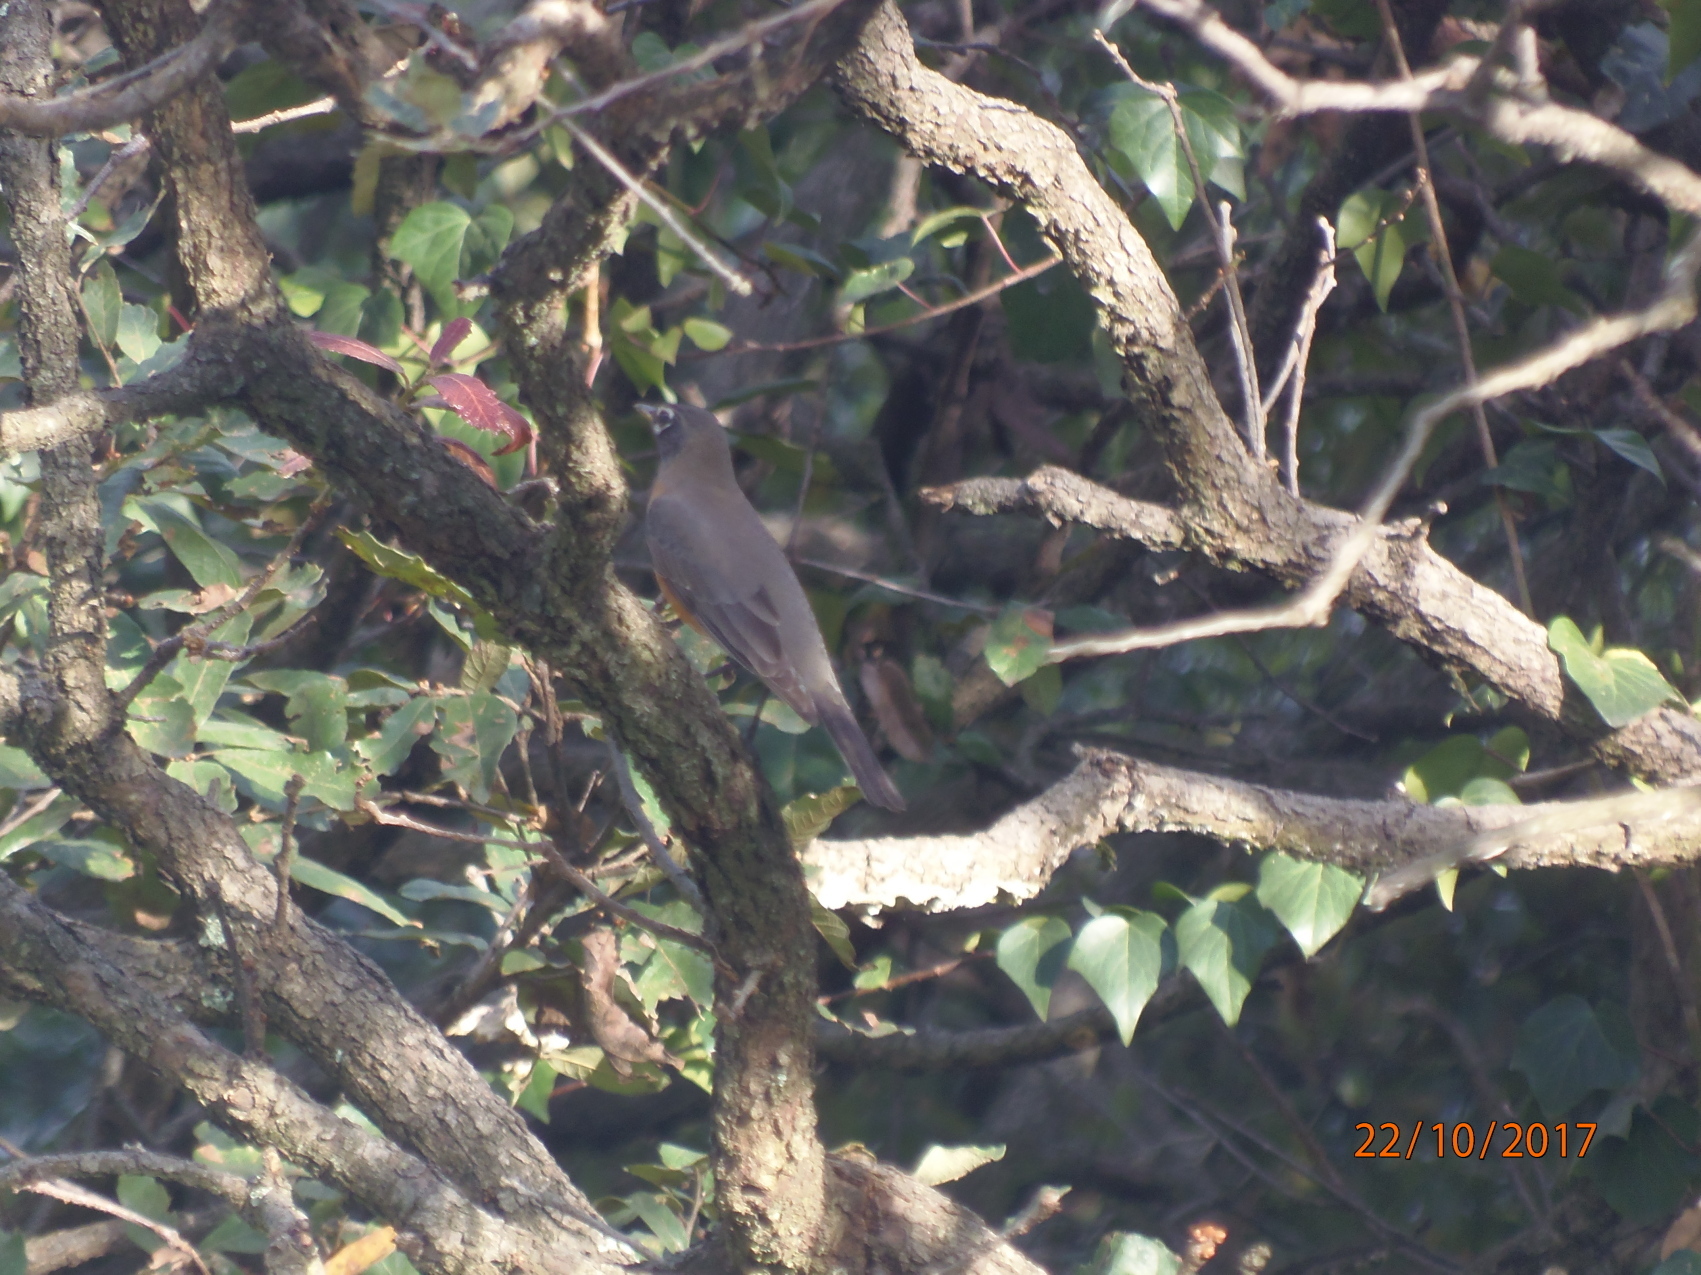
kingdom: Animalia
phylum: Chordata
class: Aves
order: Passeriformes
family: Turdidae
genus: Turdus
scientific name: Turdus migratorius
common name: American robin
